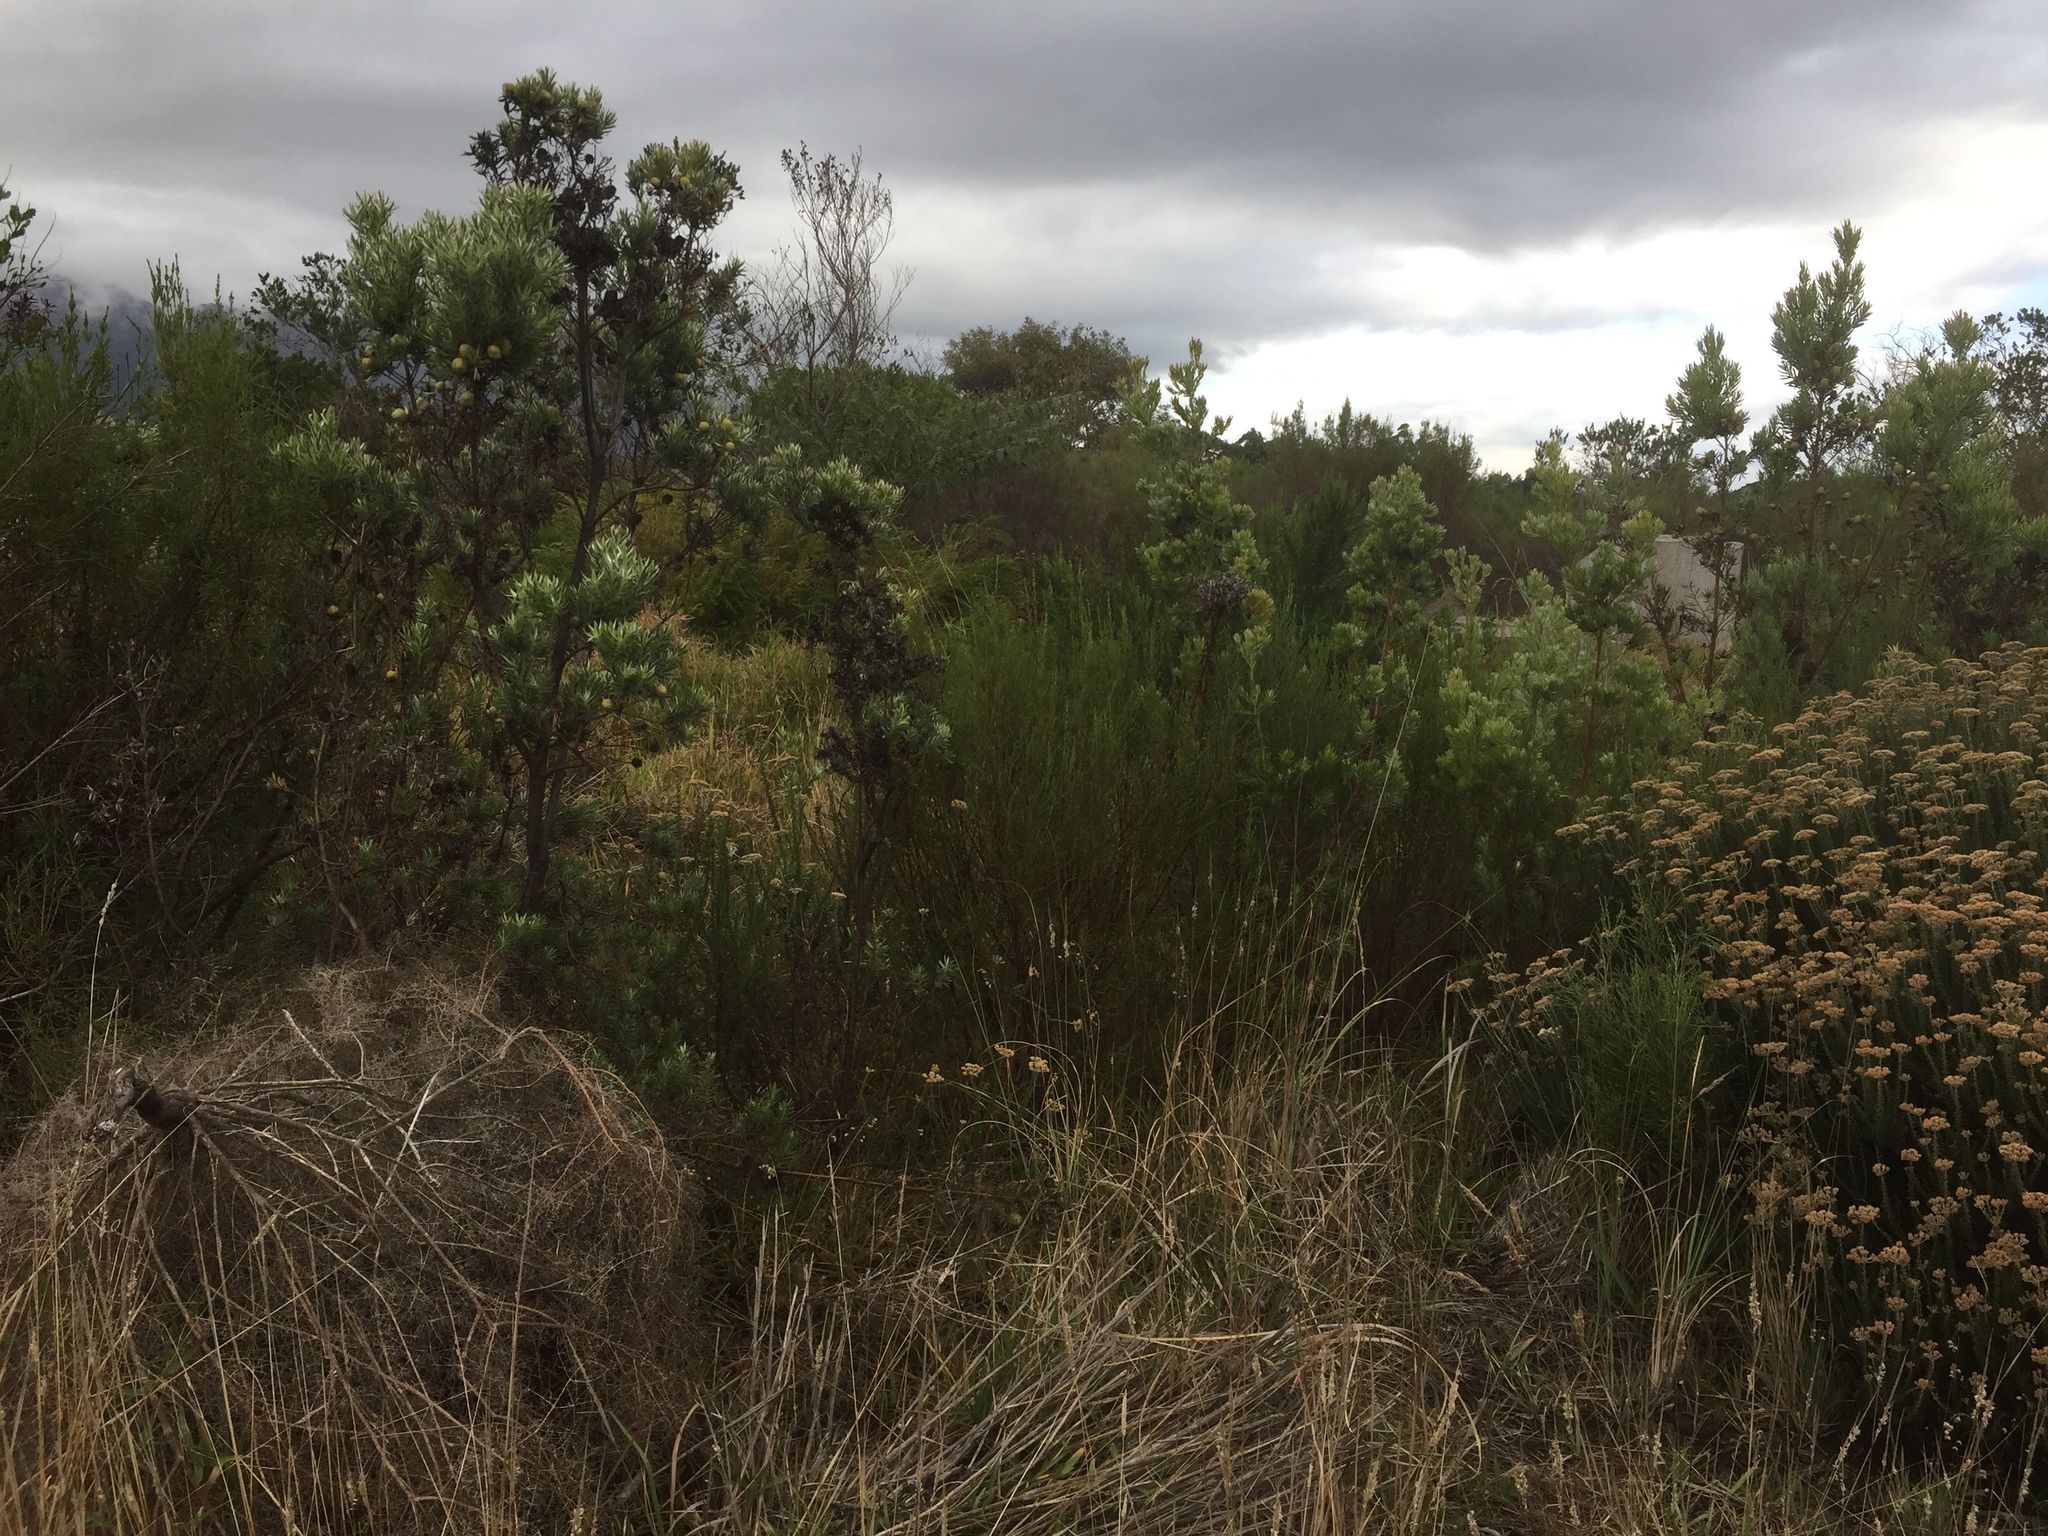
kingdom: Plantae
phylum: Tracheophyta
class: Magnoliopsida
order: Proteales
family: Proteaceae
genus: Leucadendron
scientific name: Leucadendron floridum
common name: Flats conebush
